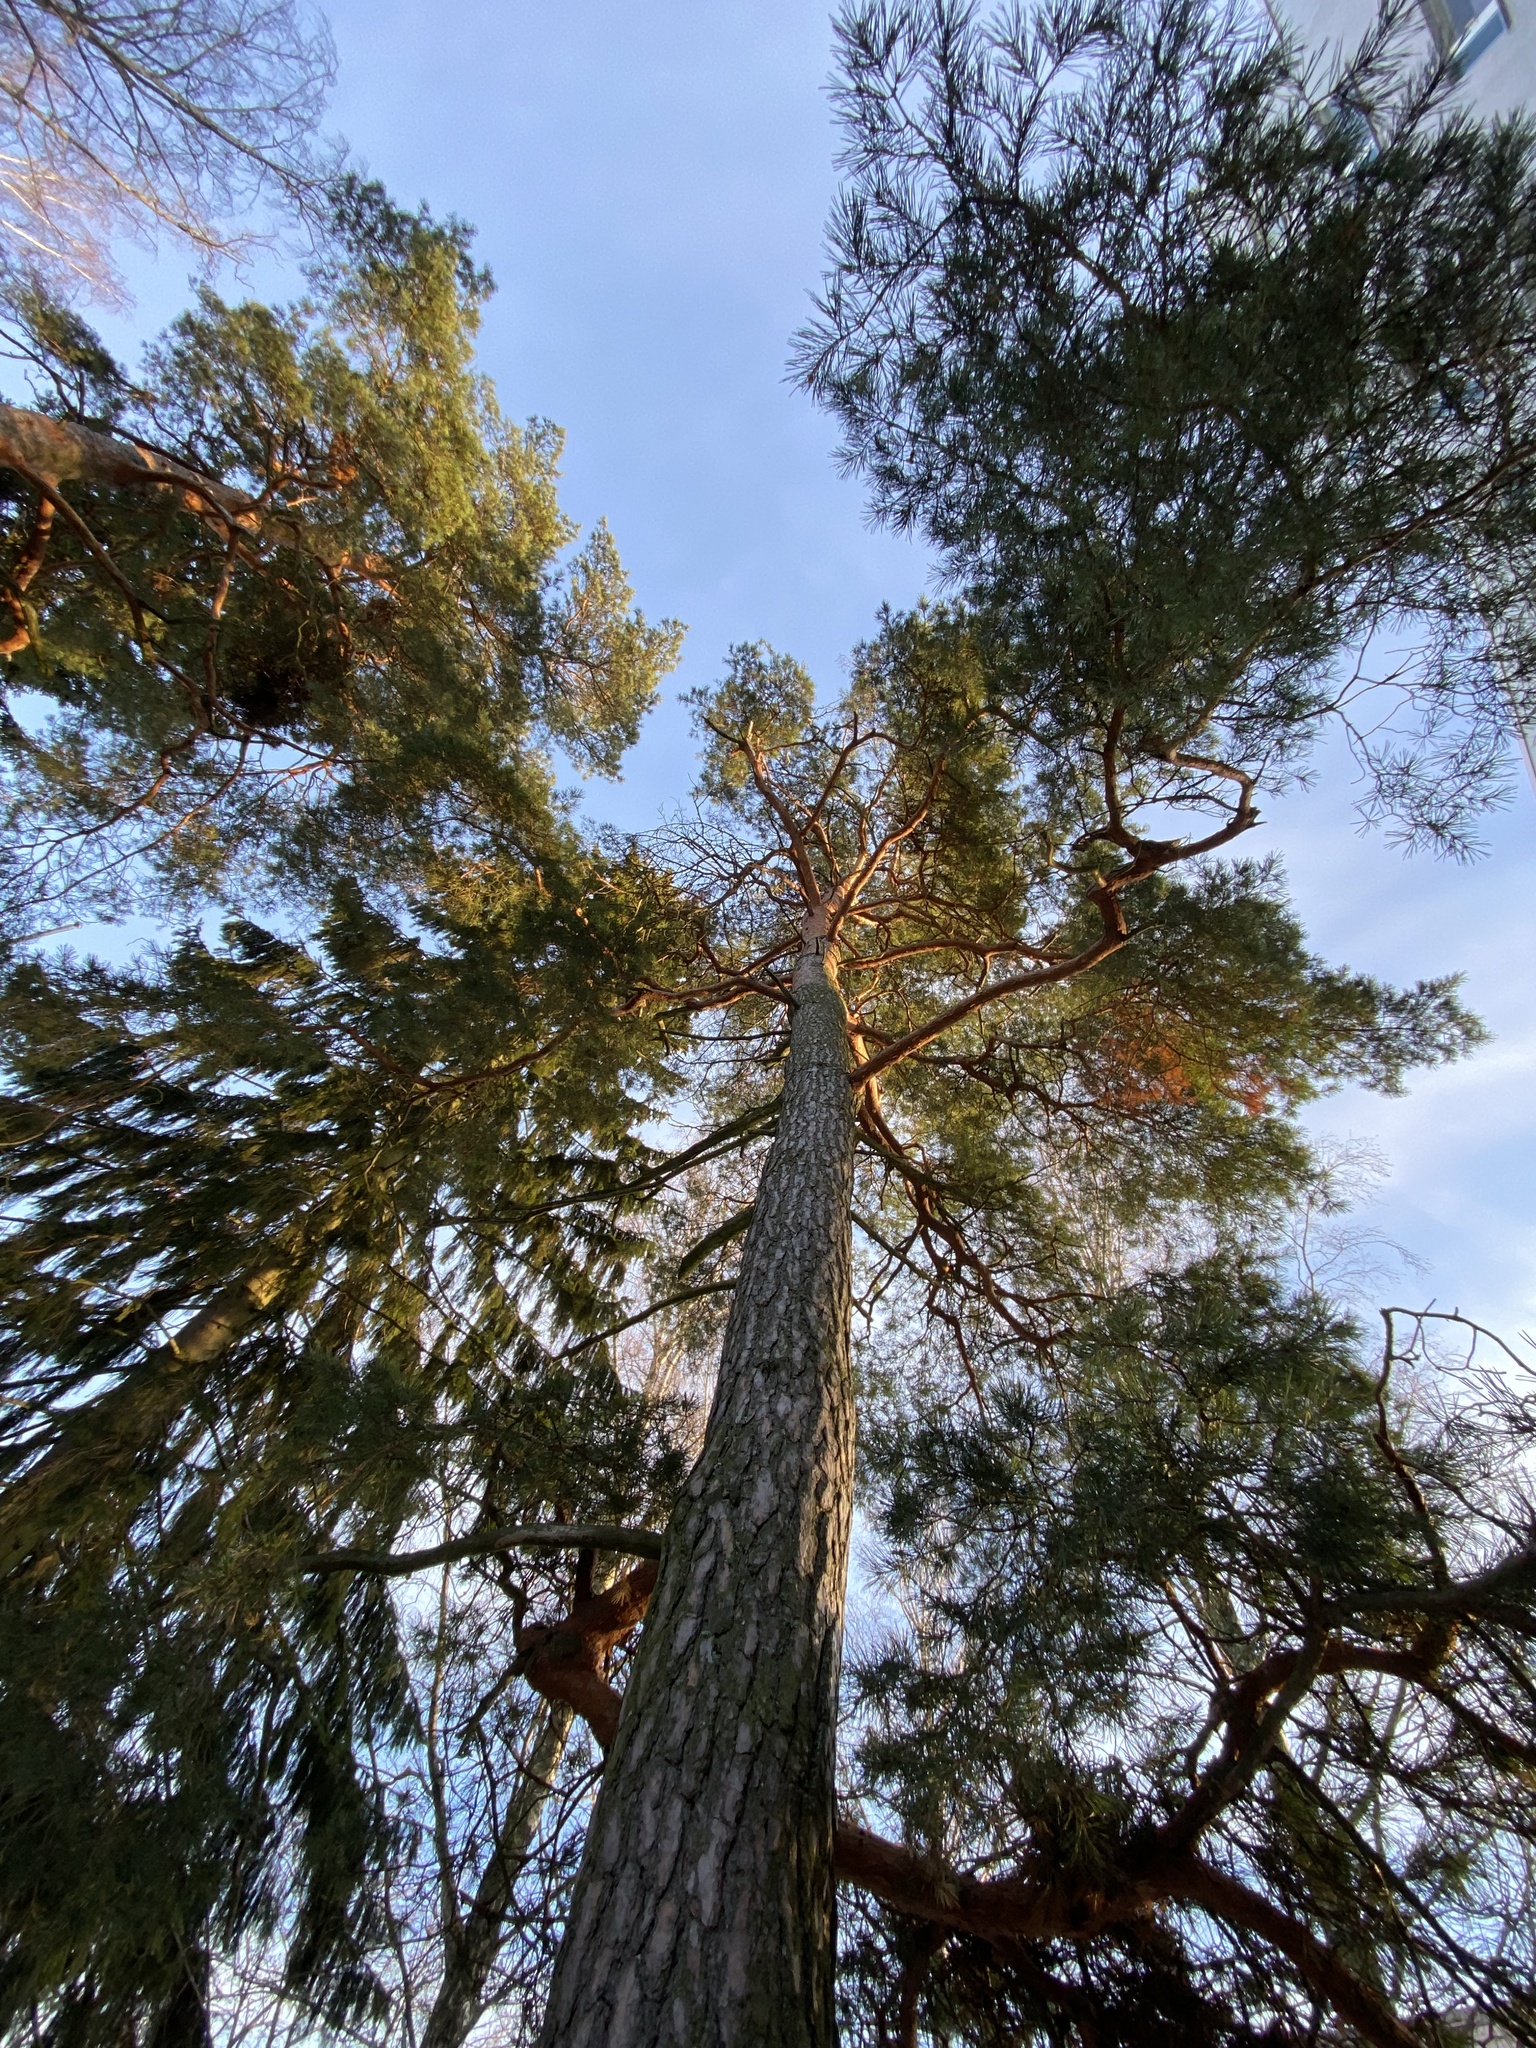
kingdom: Plantae
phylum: Tracheophyta
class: Pinopsida
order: Pinales
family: Pinaceae
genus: Pinus
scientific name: Pinus sylvestris
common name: Scots pine
